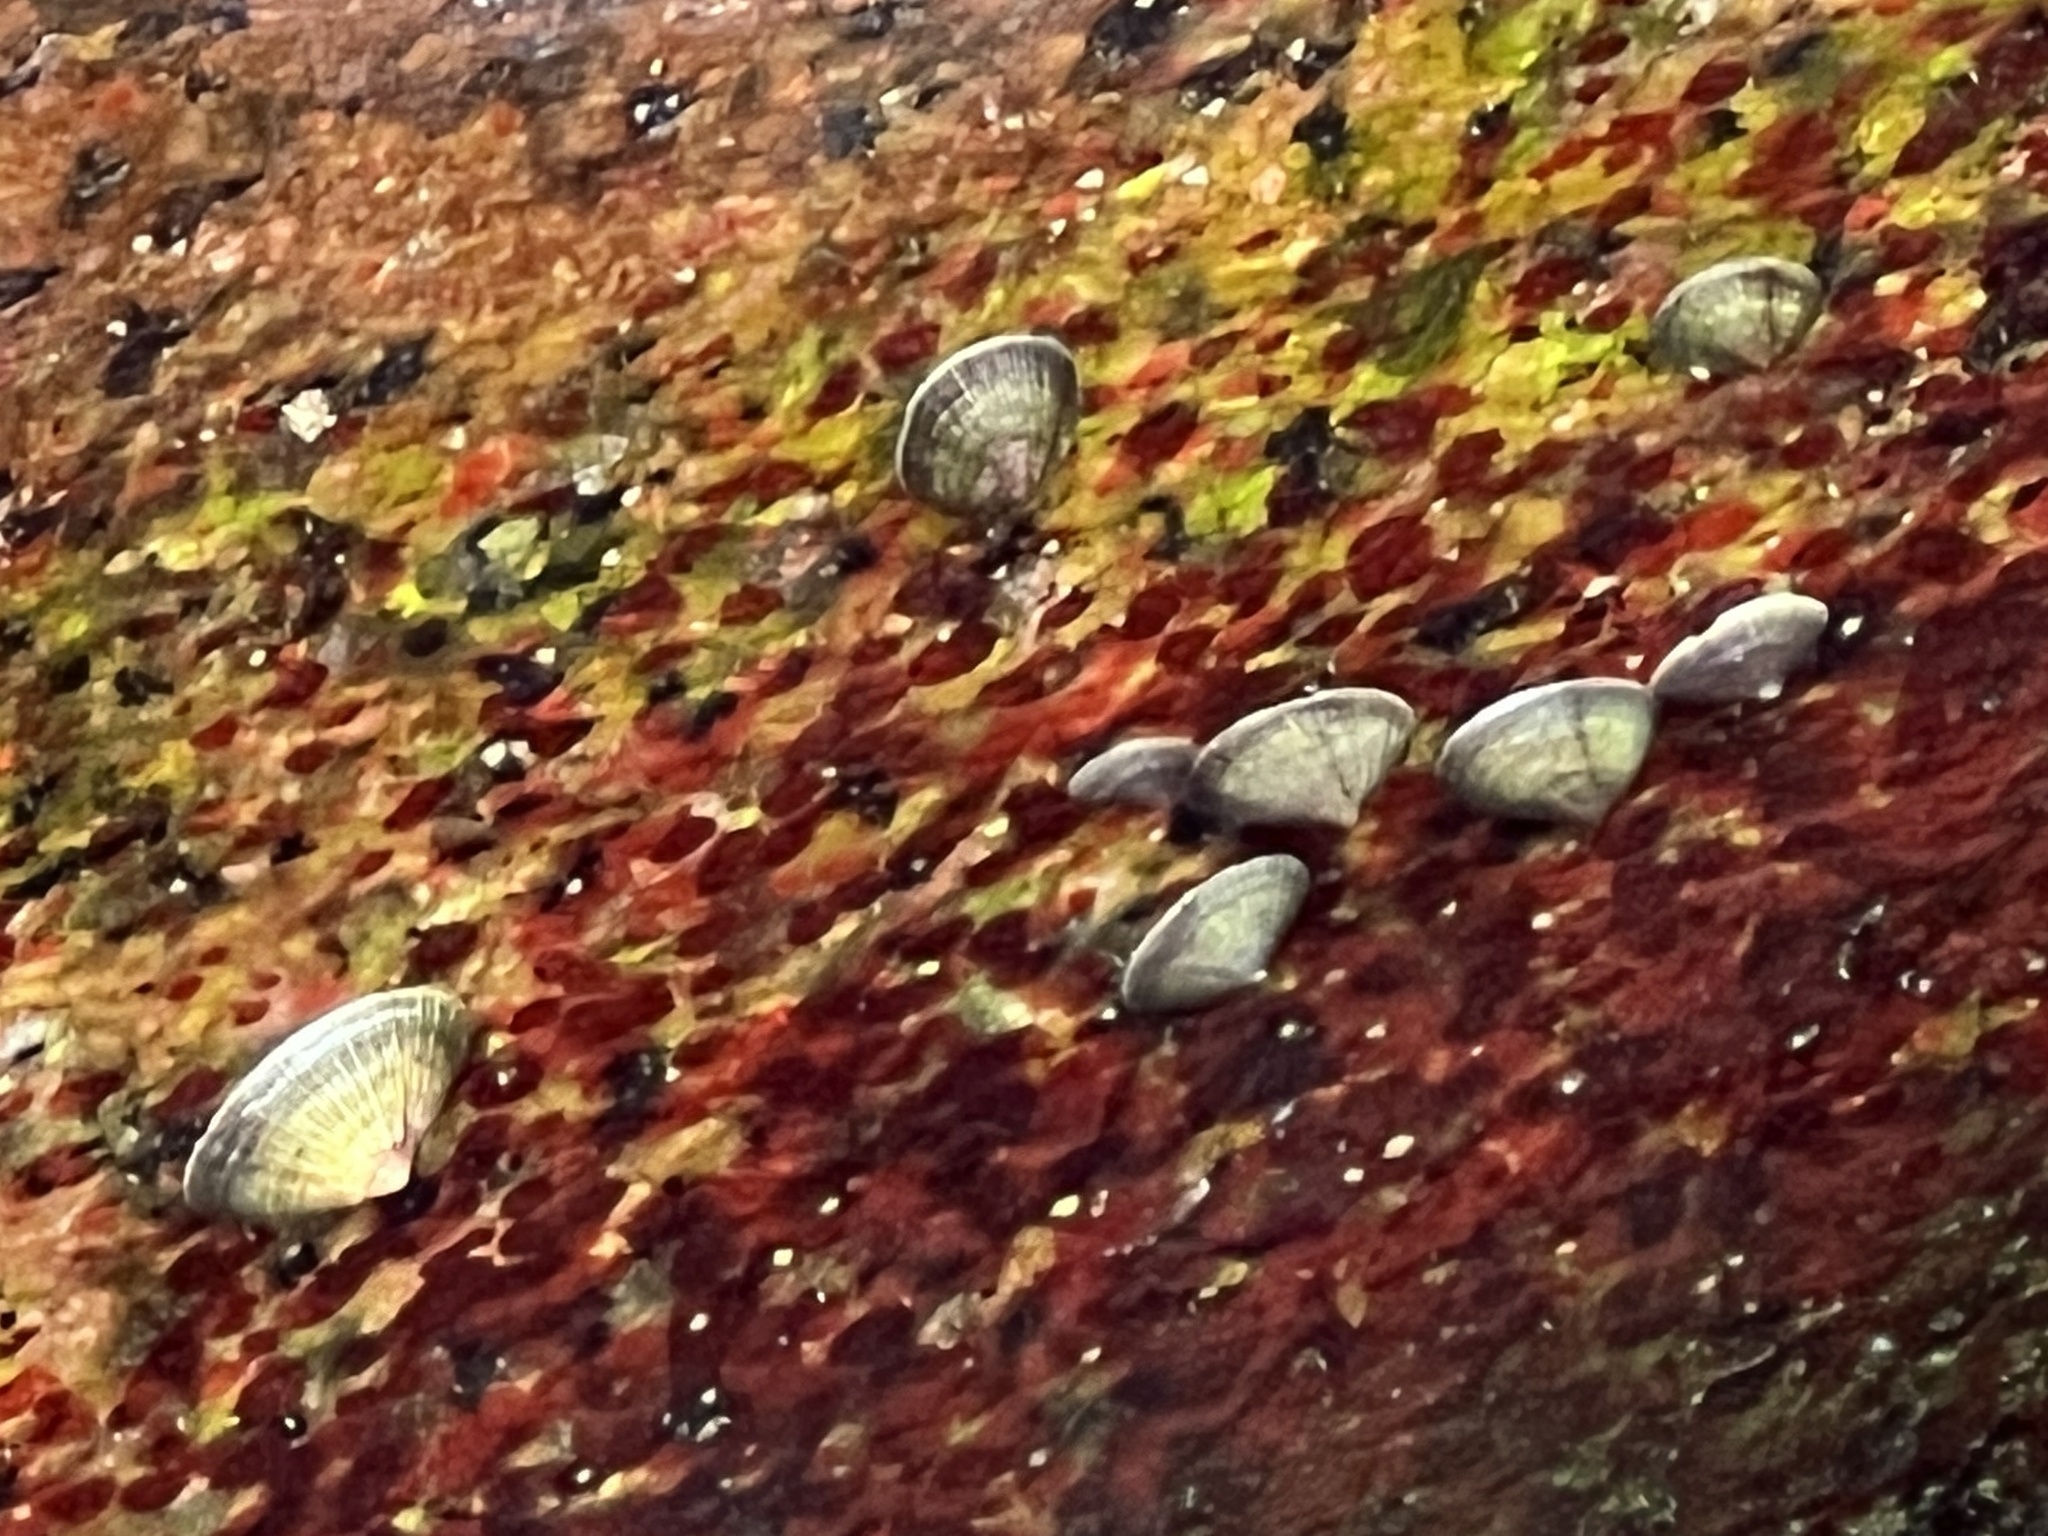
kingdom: Animalia
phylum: Mollusca
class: Gastropoda
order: Siphonariida
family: Siphonariidae
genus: Siphonaria
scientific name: Siphonaria naufragum
